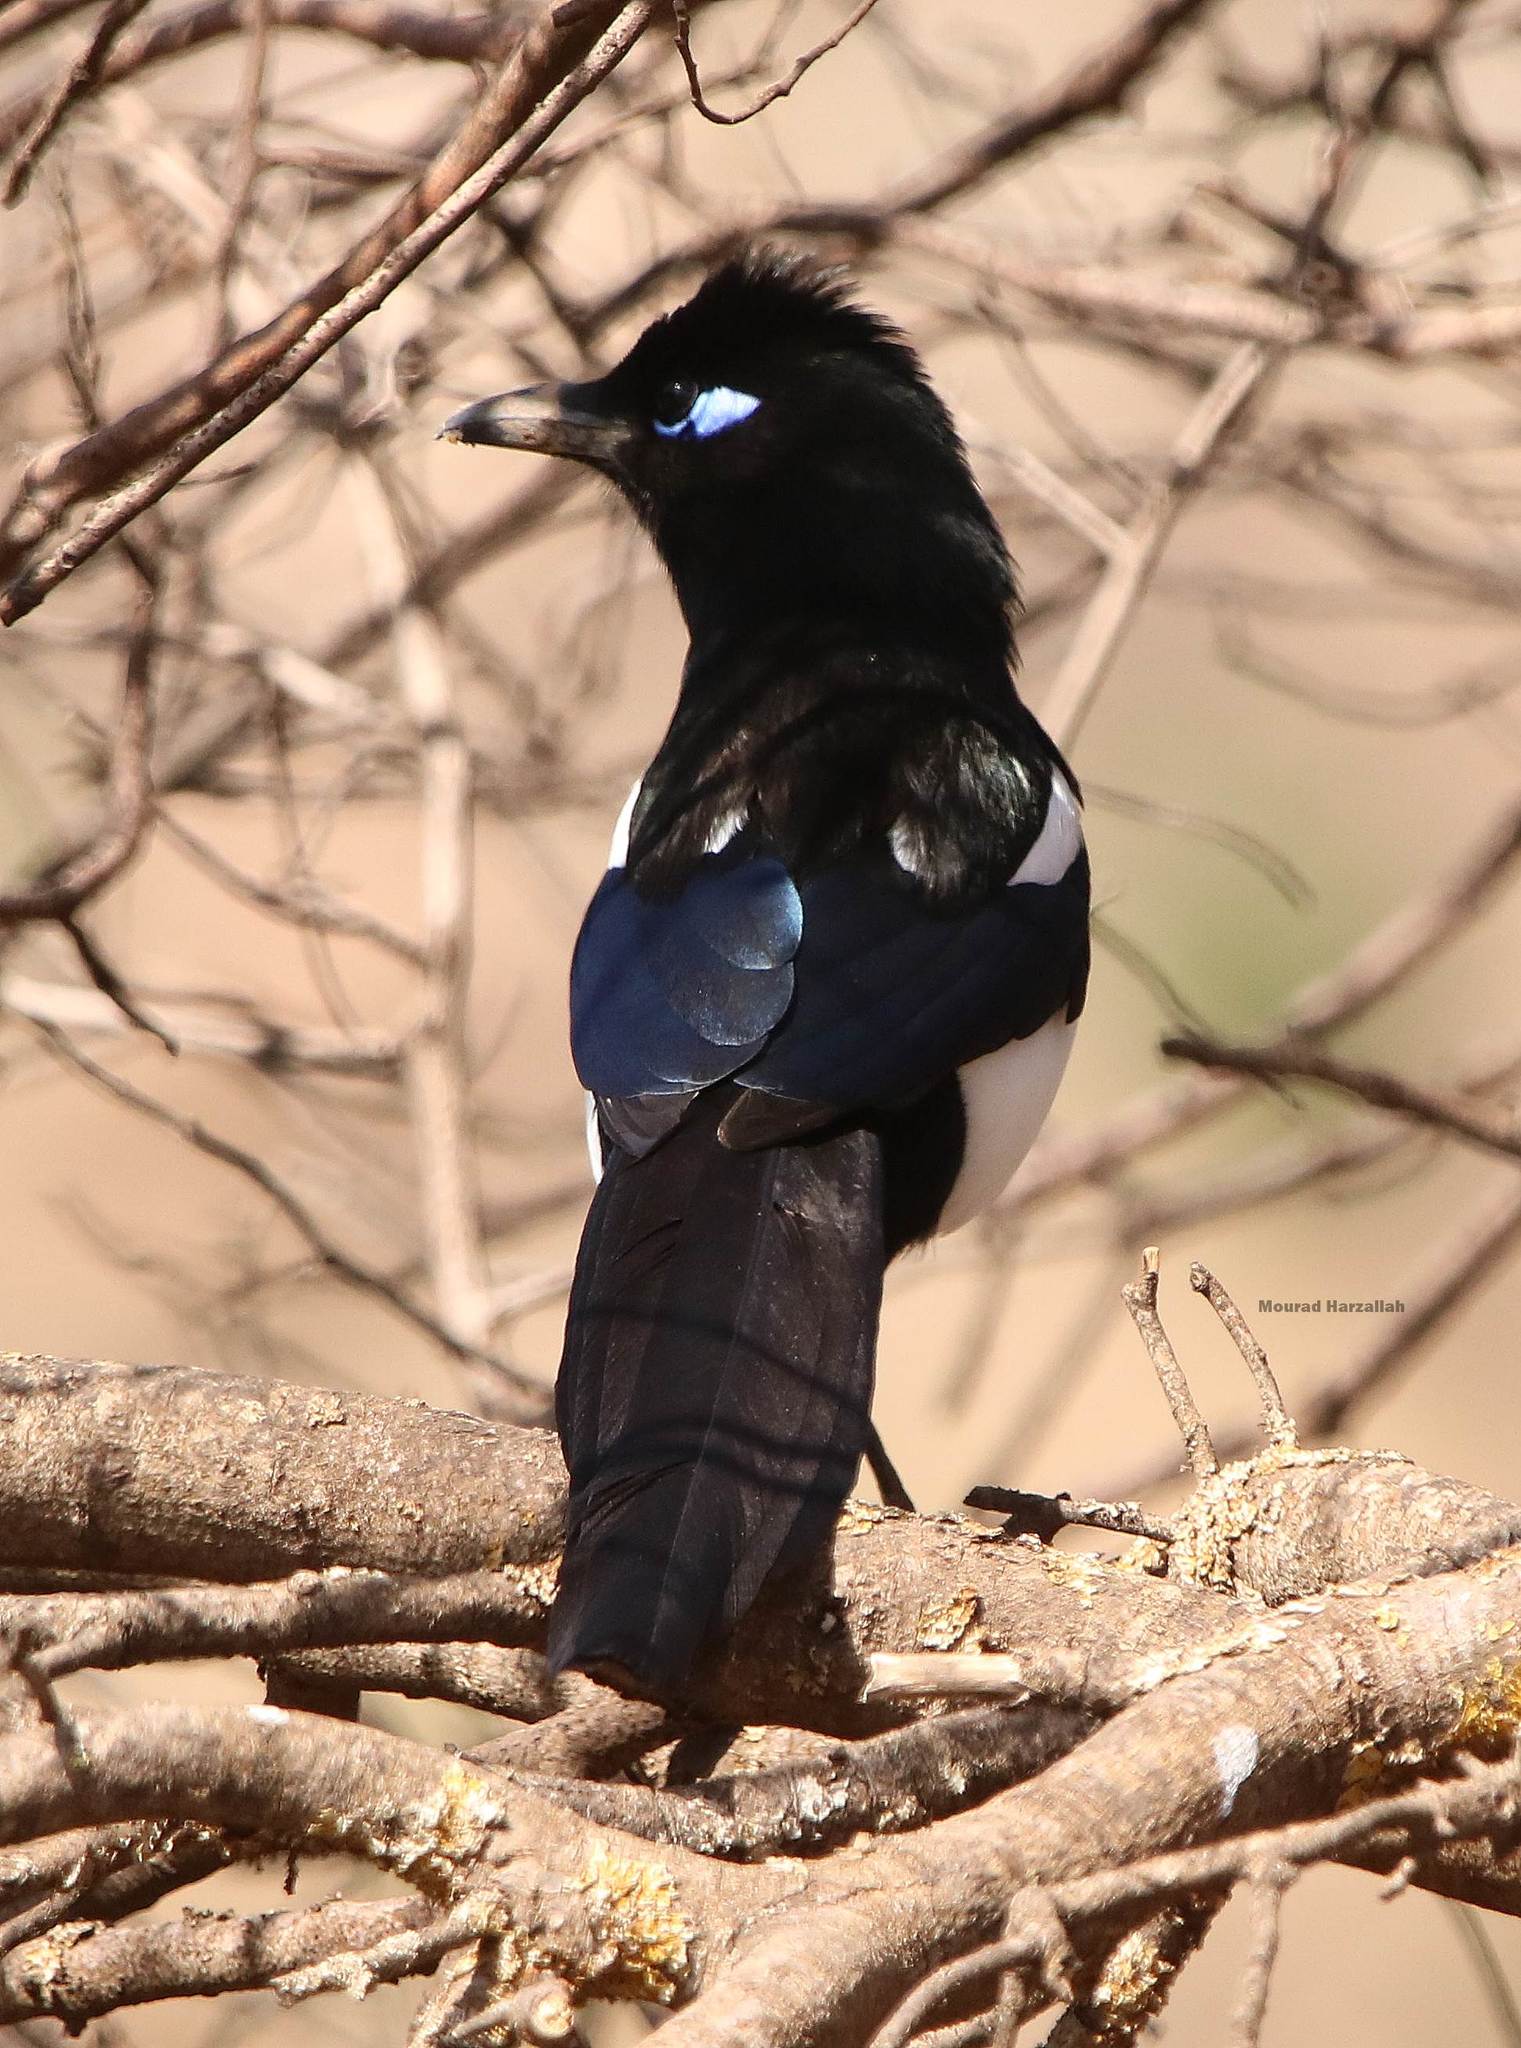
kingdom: Animalia
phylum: Chordata
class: Aves
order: Passeriformes
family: Corvidae
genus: Pica
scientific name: Pica mauritanica
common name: Maghreb magpie
